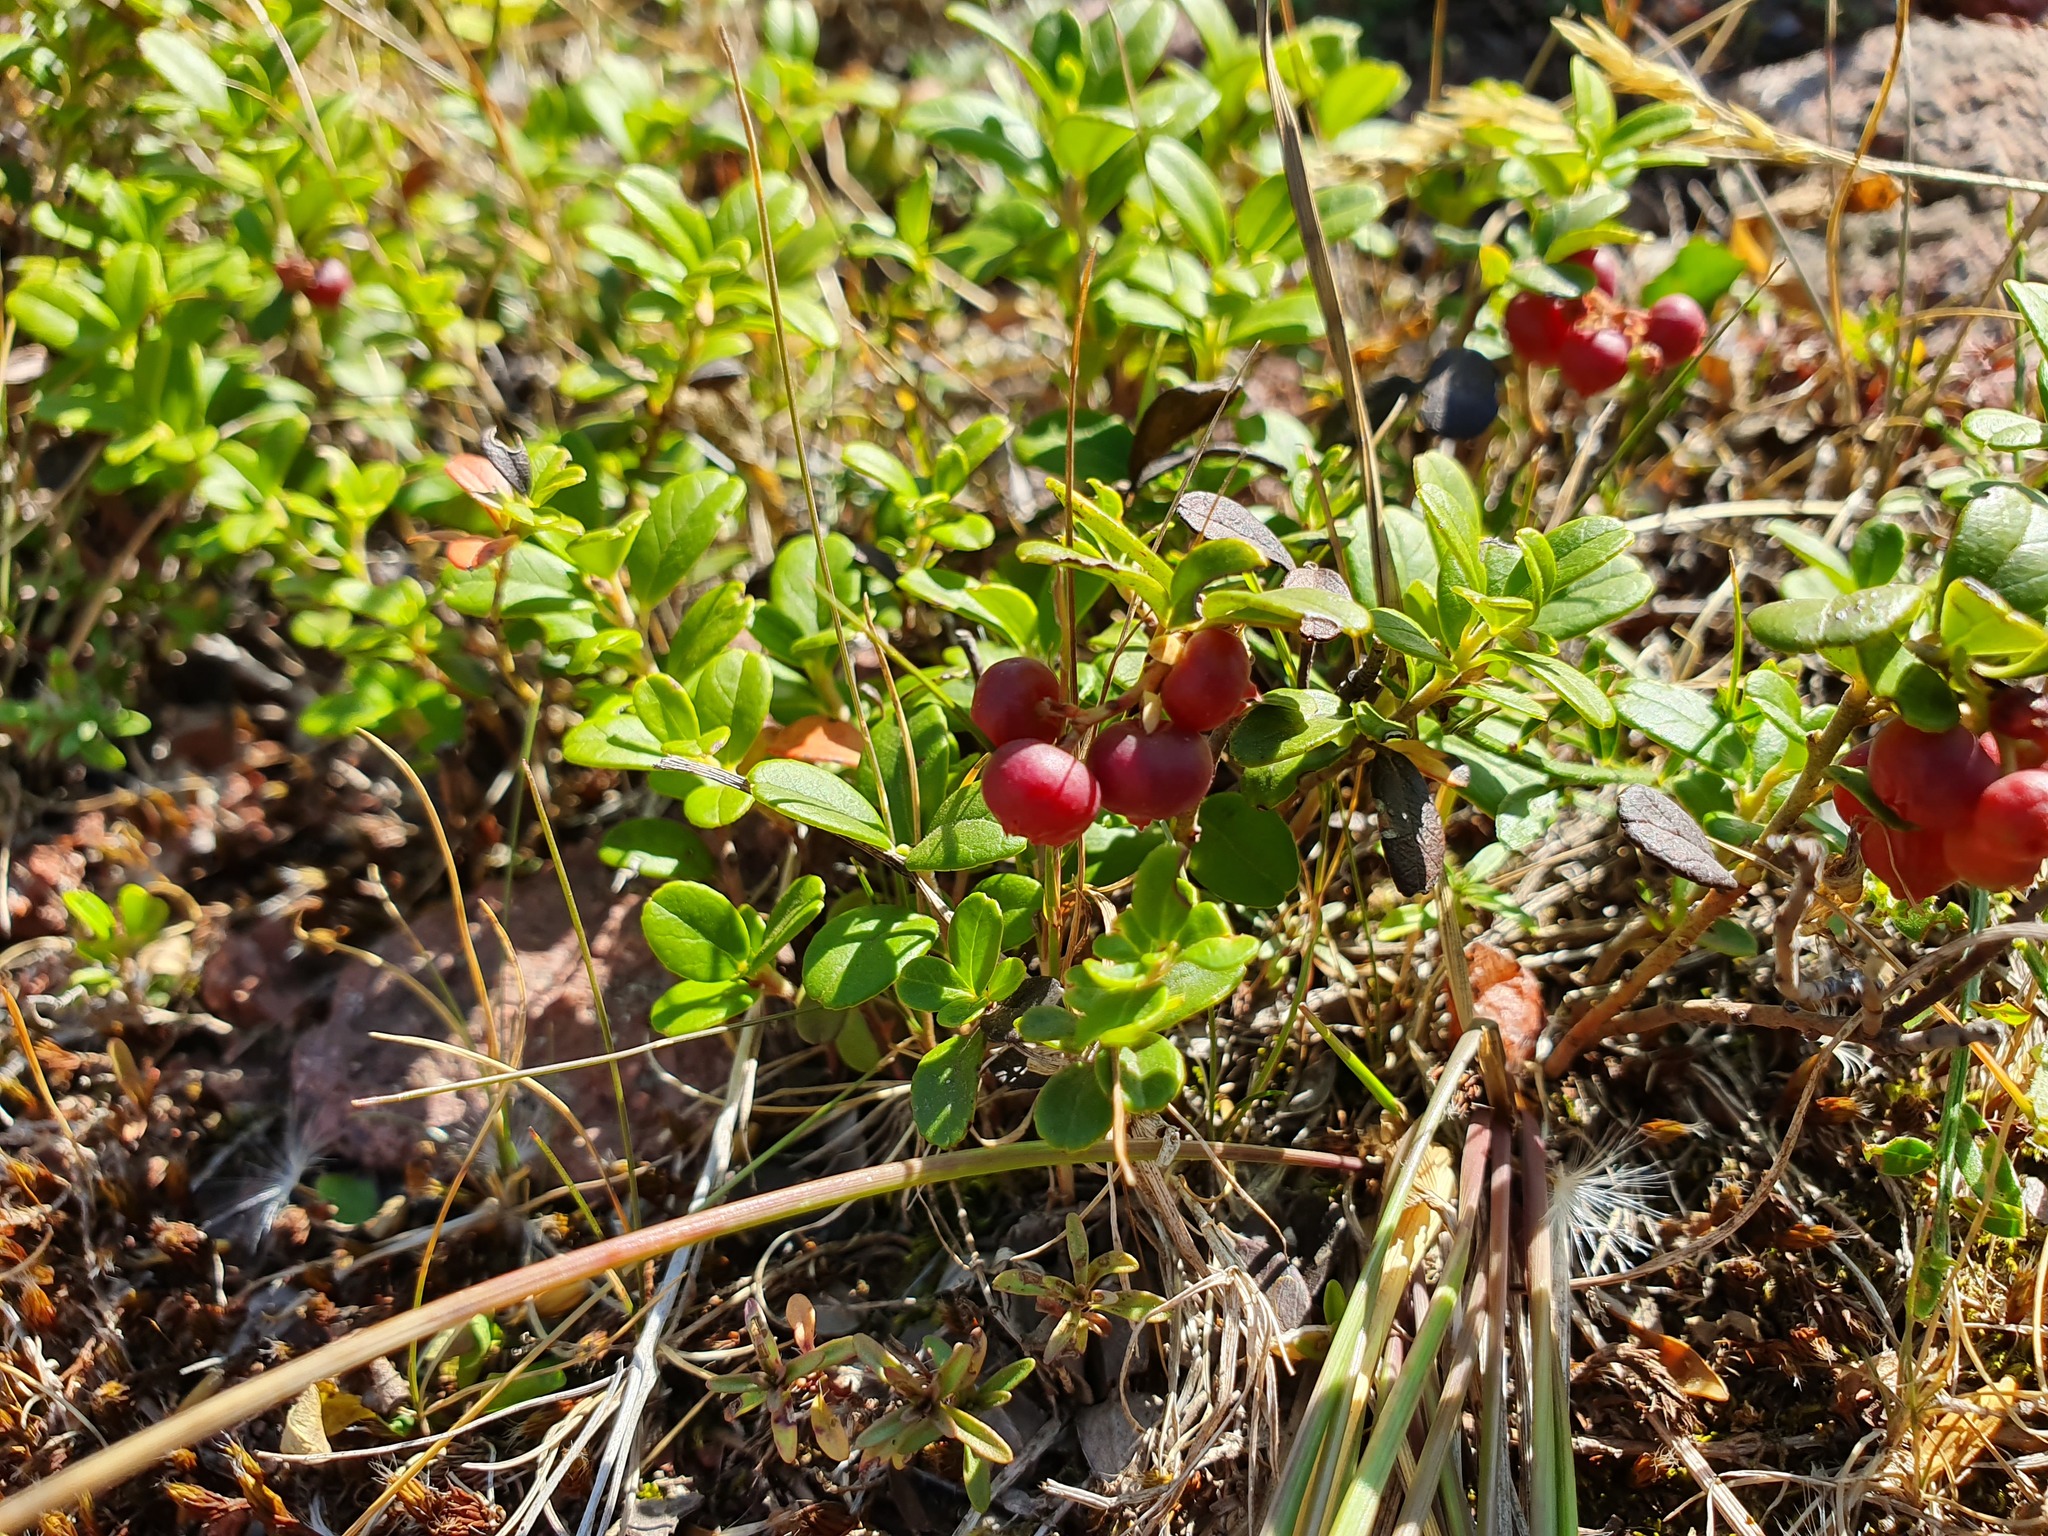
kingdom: Plantae
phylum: Tracheophyta
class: Magnoliopsida
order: Ericales
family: Ericaceae
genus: Vaccinium
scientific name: Vaccinium vitis-idaea
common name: Cowberry
